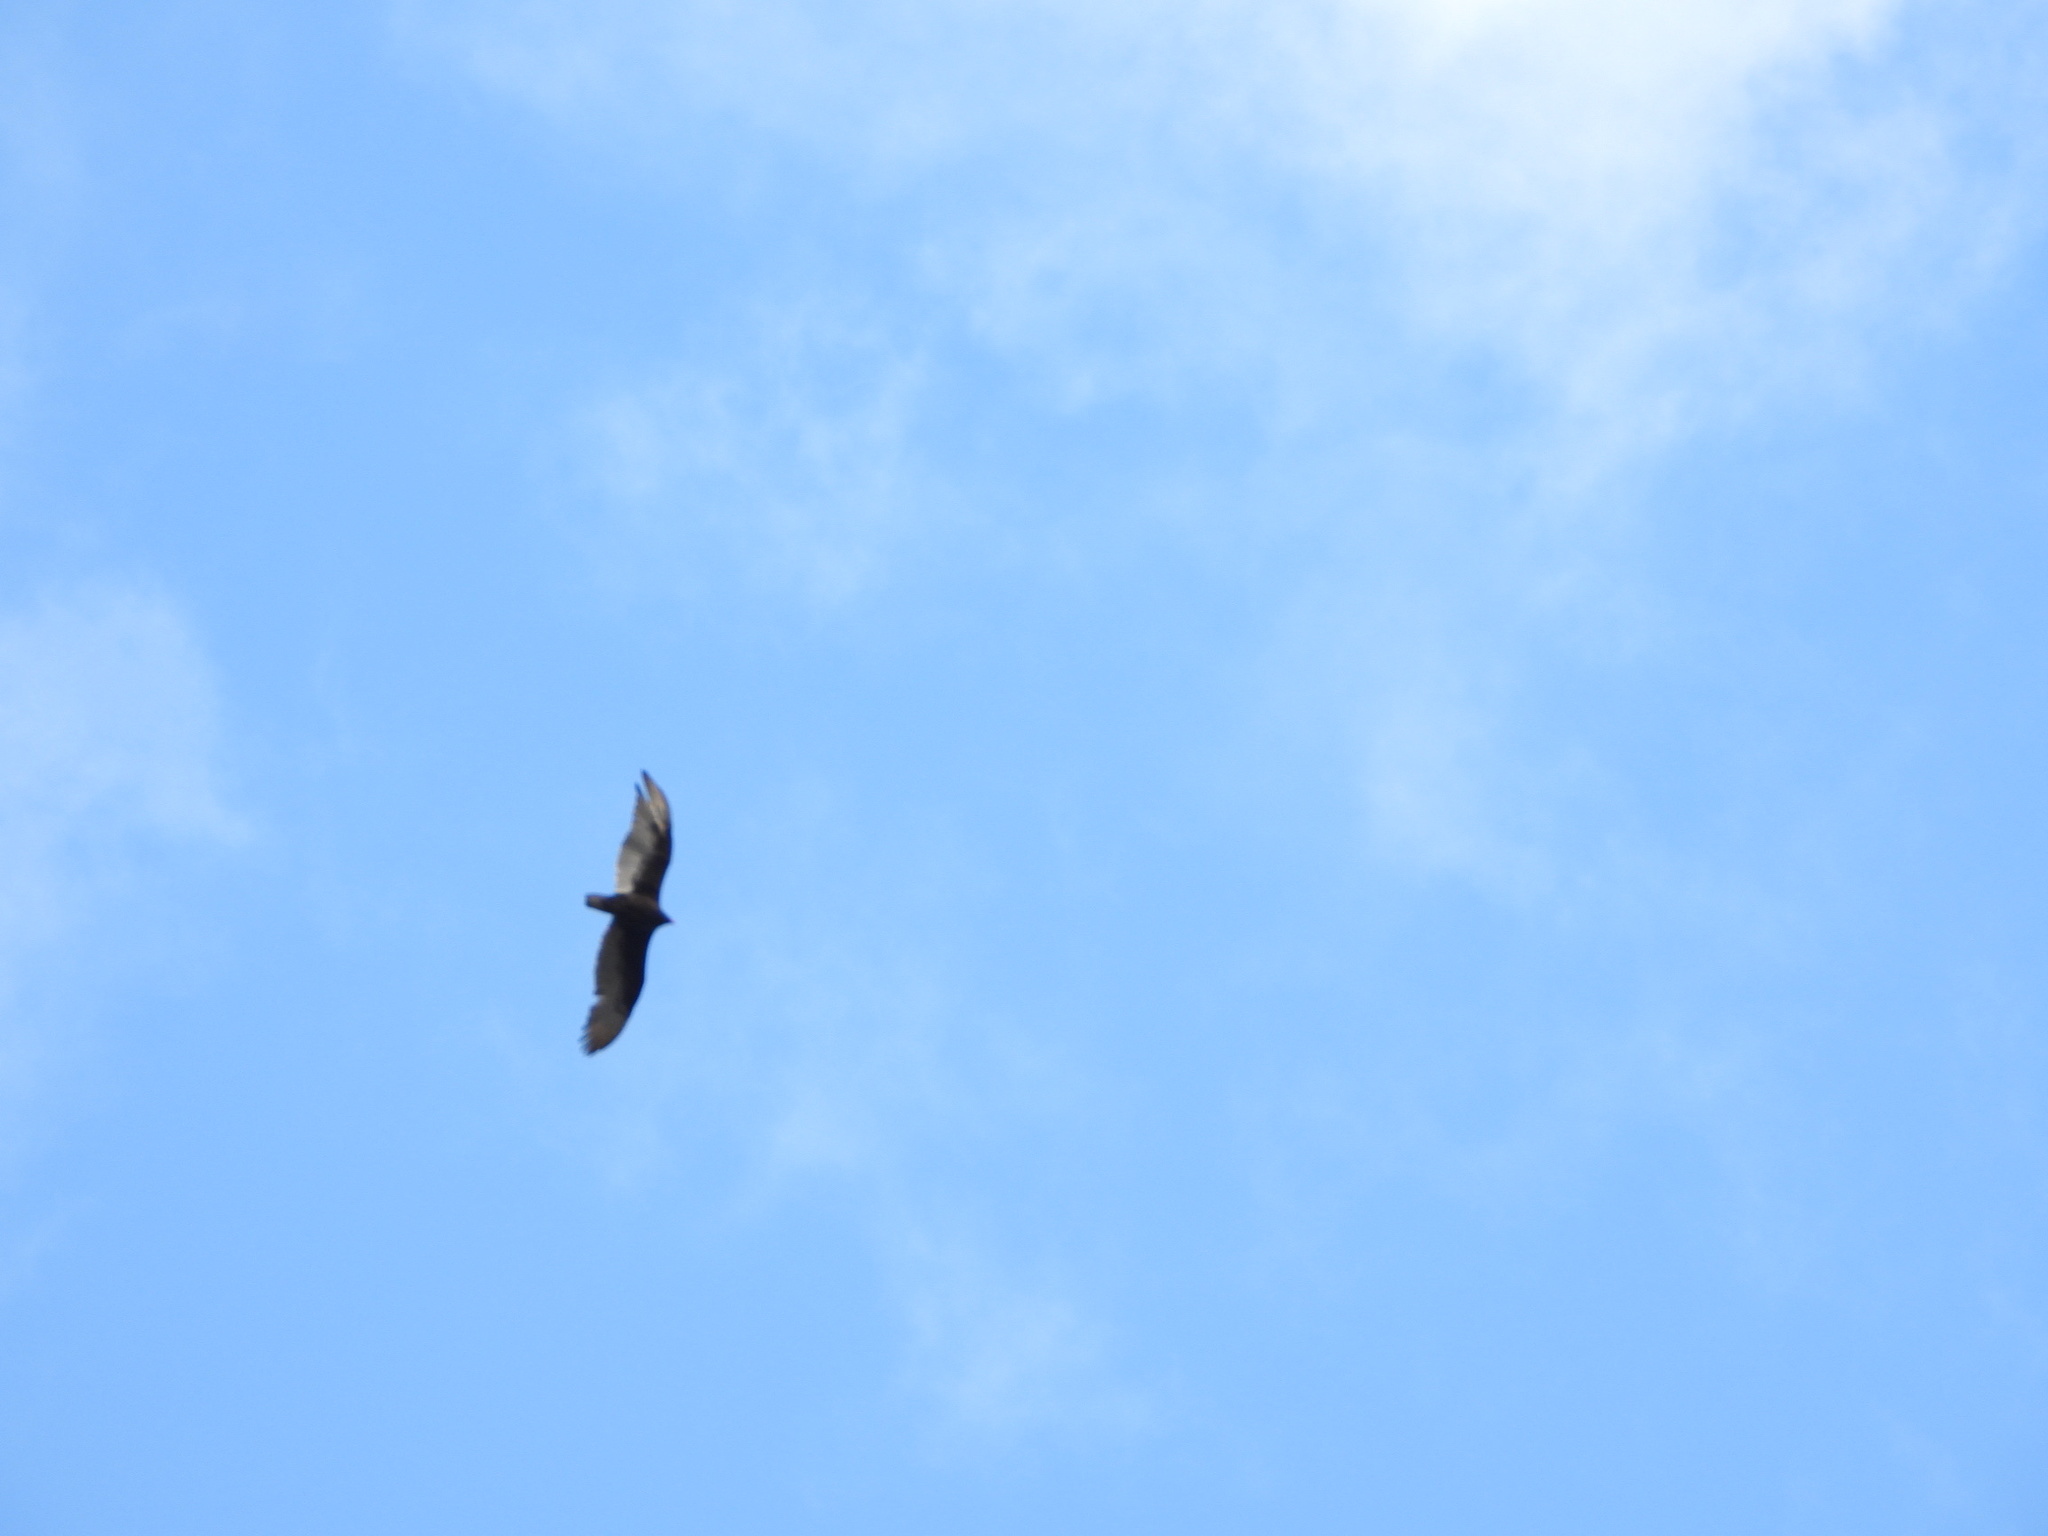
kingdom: Animalia
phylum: Chordata
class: Aves
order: Accipitriformes
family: Cathartidae
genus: Cathartes
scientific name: Cathartes aura
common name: Turkey vulture
